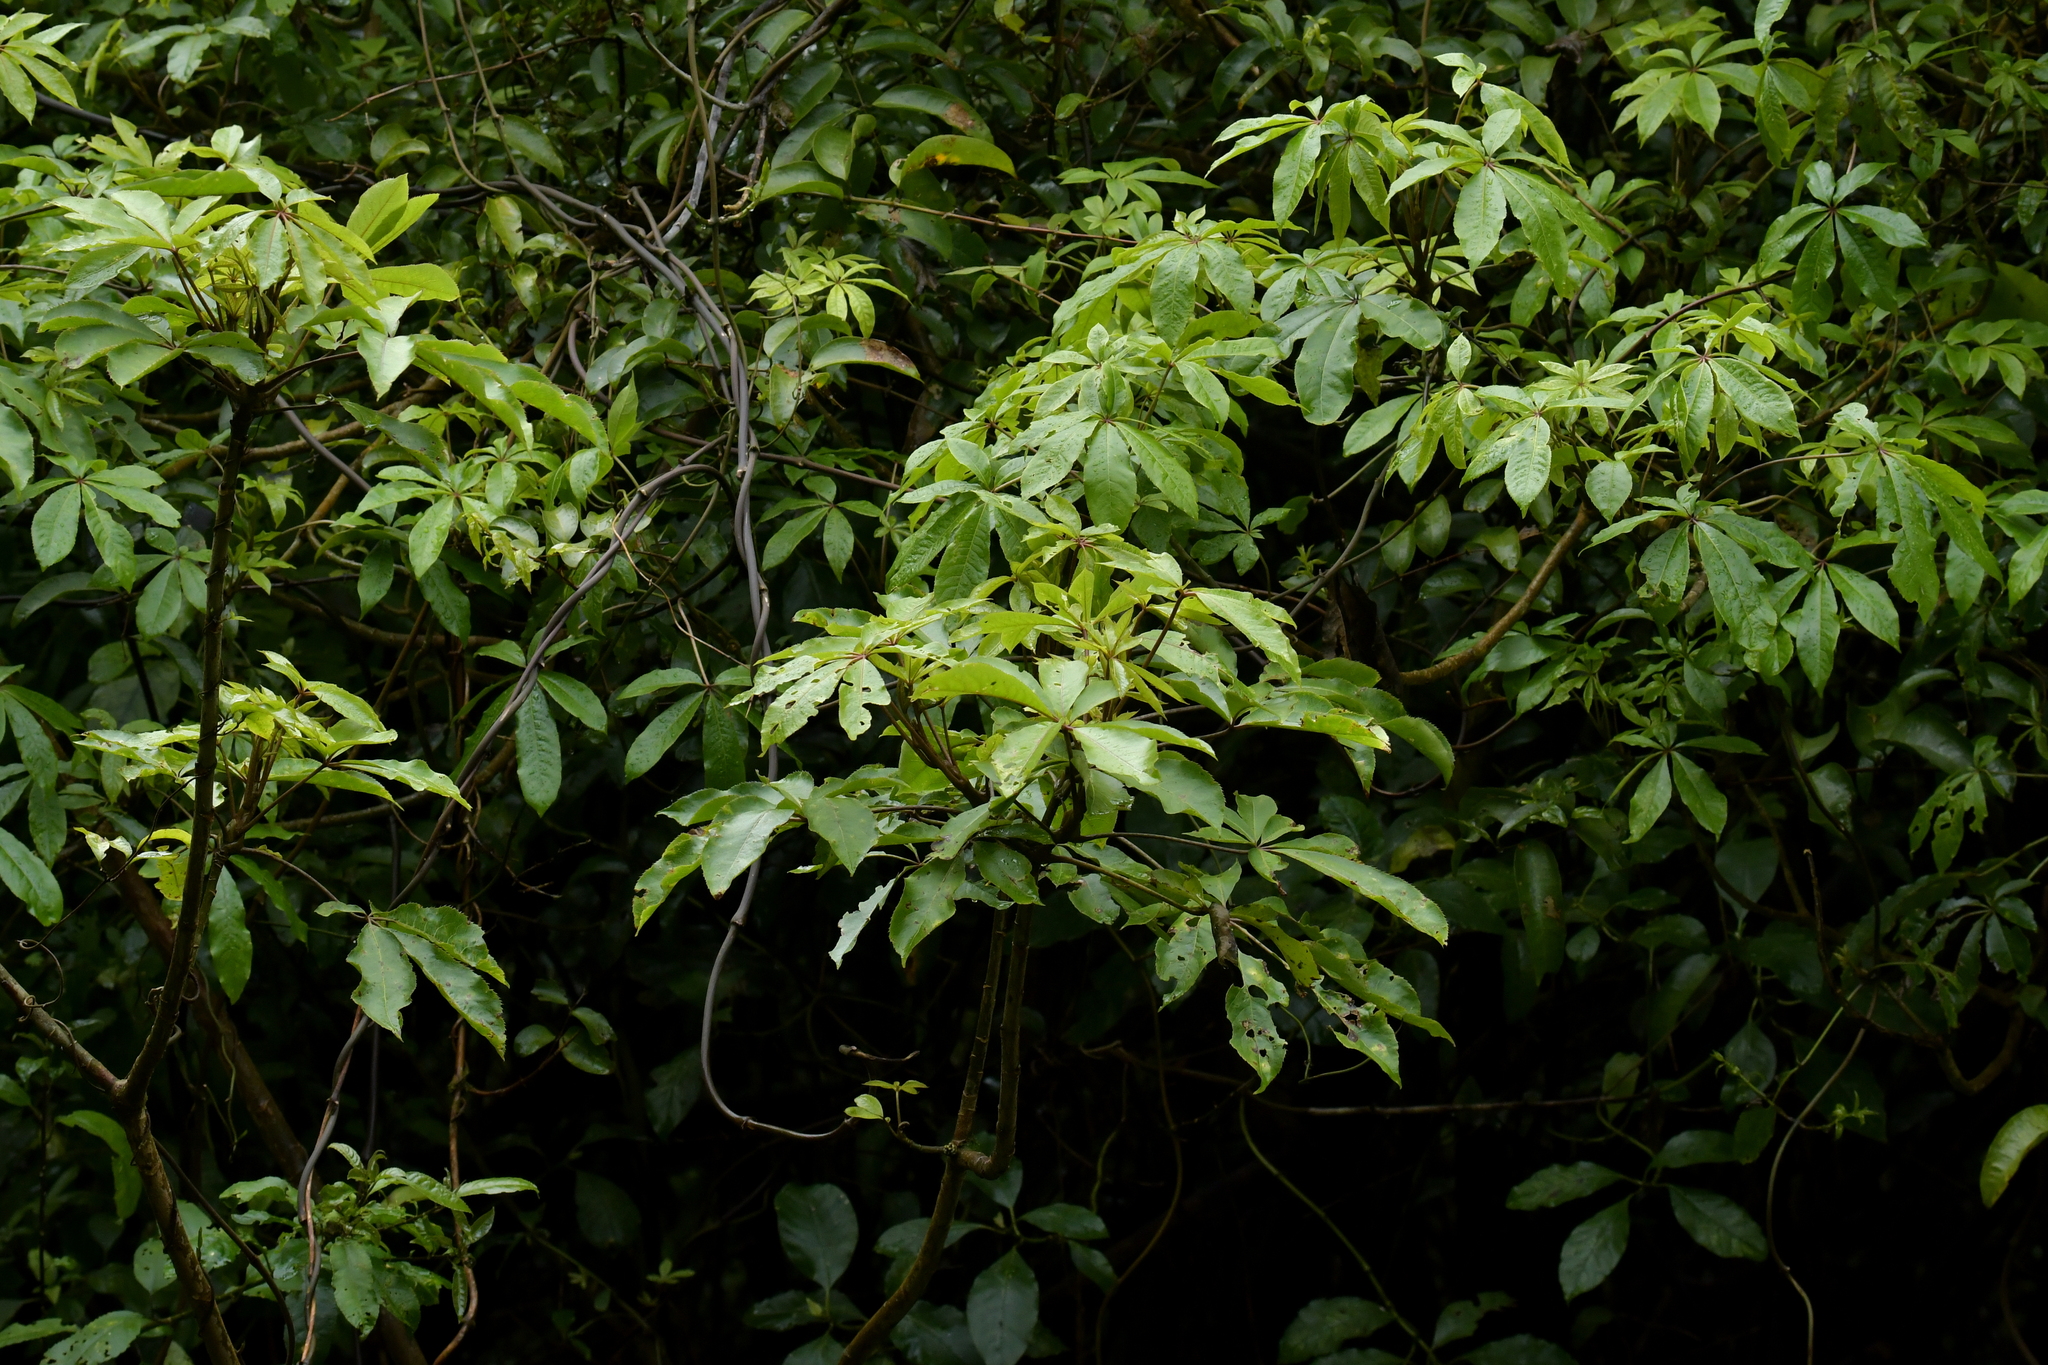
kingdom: Plantae
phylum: Tracheophyta
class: Magnoliopsida
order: Apiales
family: Araliaceae
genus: Schefflera
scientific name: Schefflera digitata
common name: Pate
